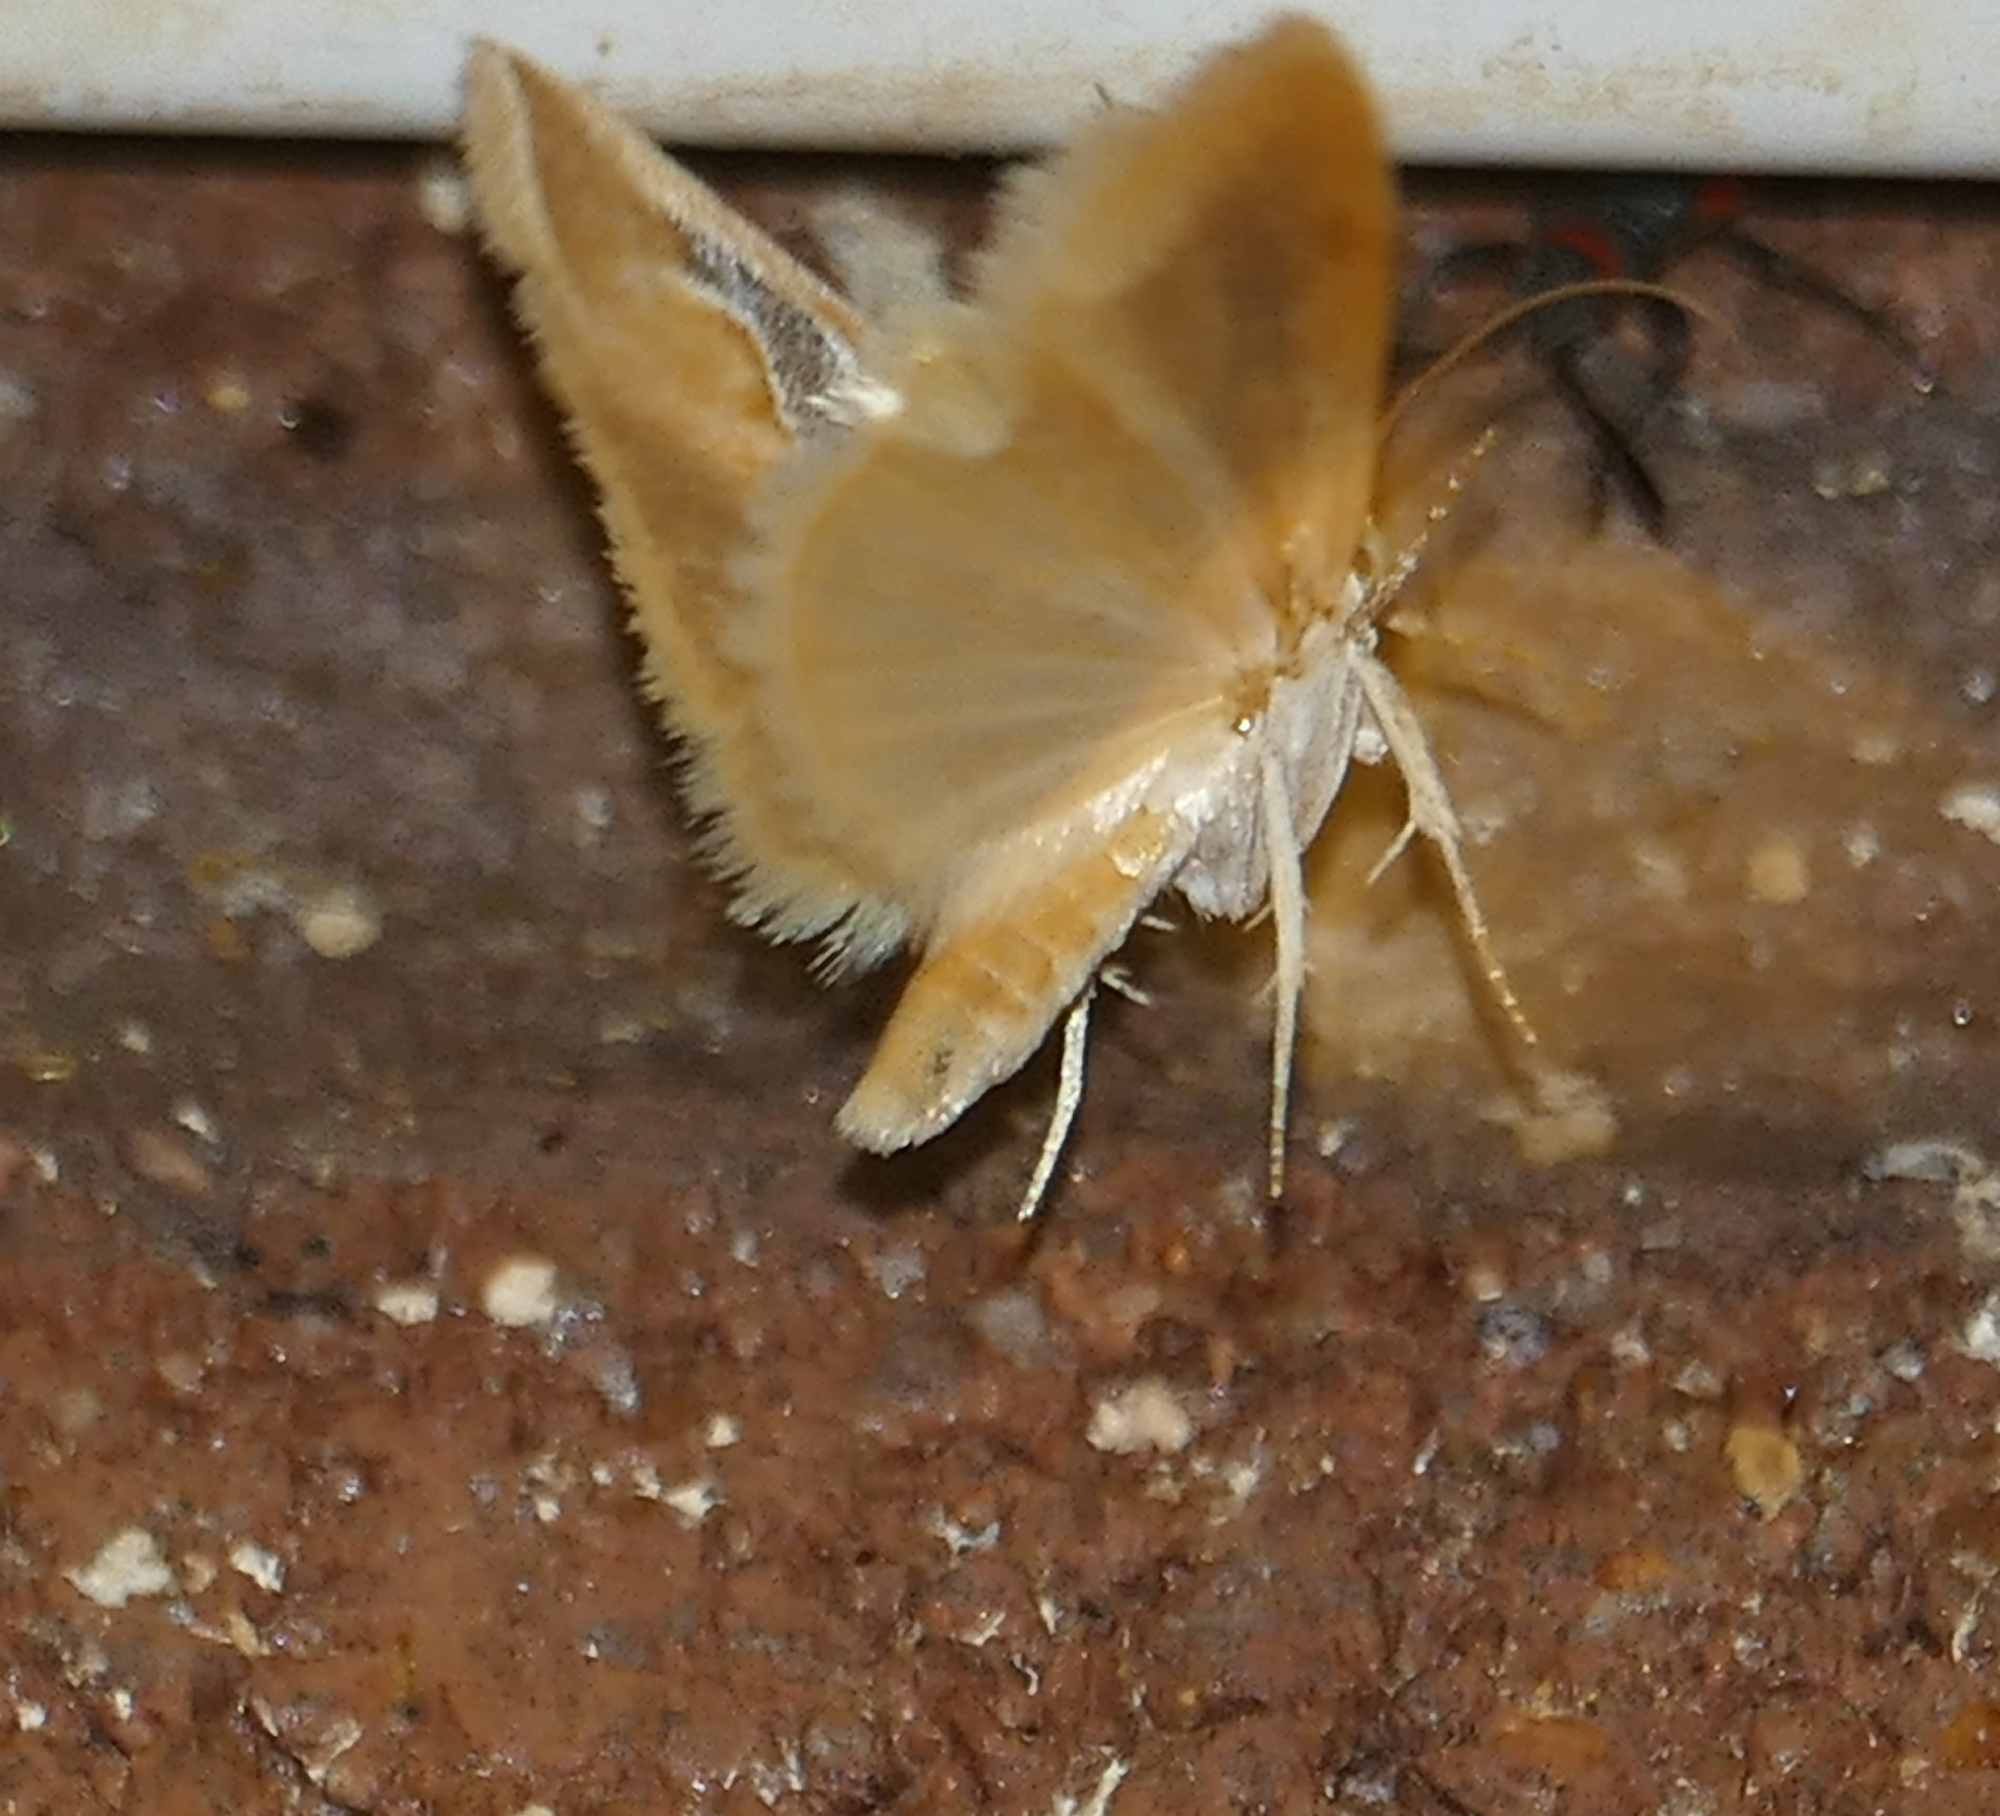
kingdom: Animalia
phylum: Arthropoda
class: Insecta
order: Lepidoptera
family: Noctuidae
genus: Ponometia
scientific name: Ponometia venustula
